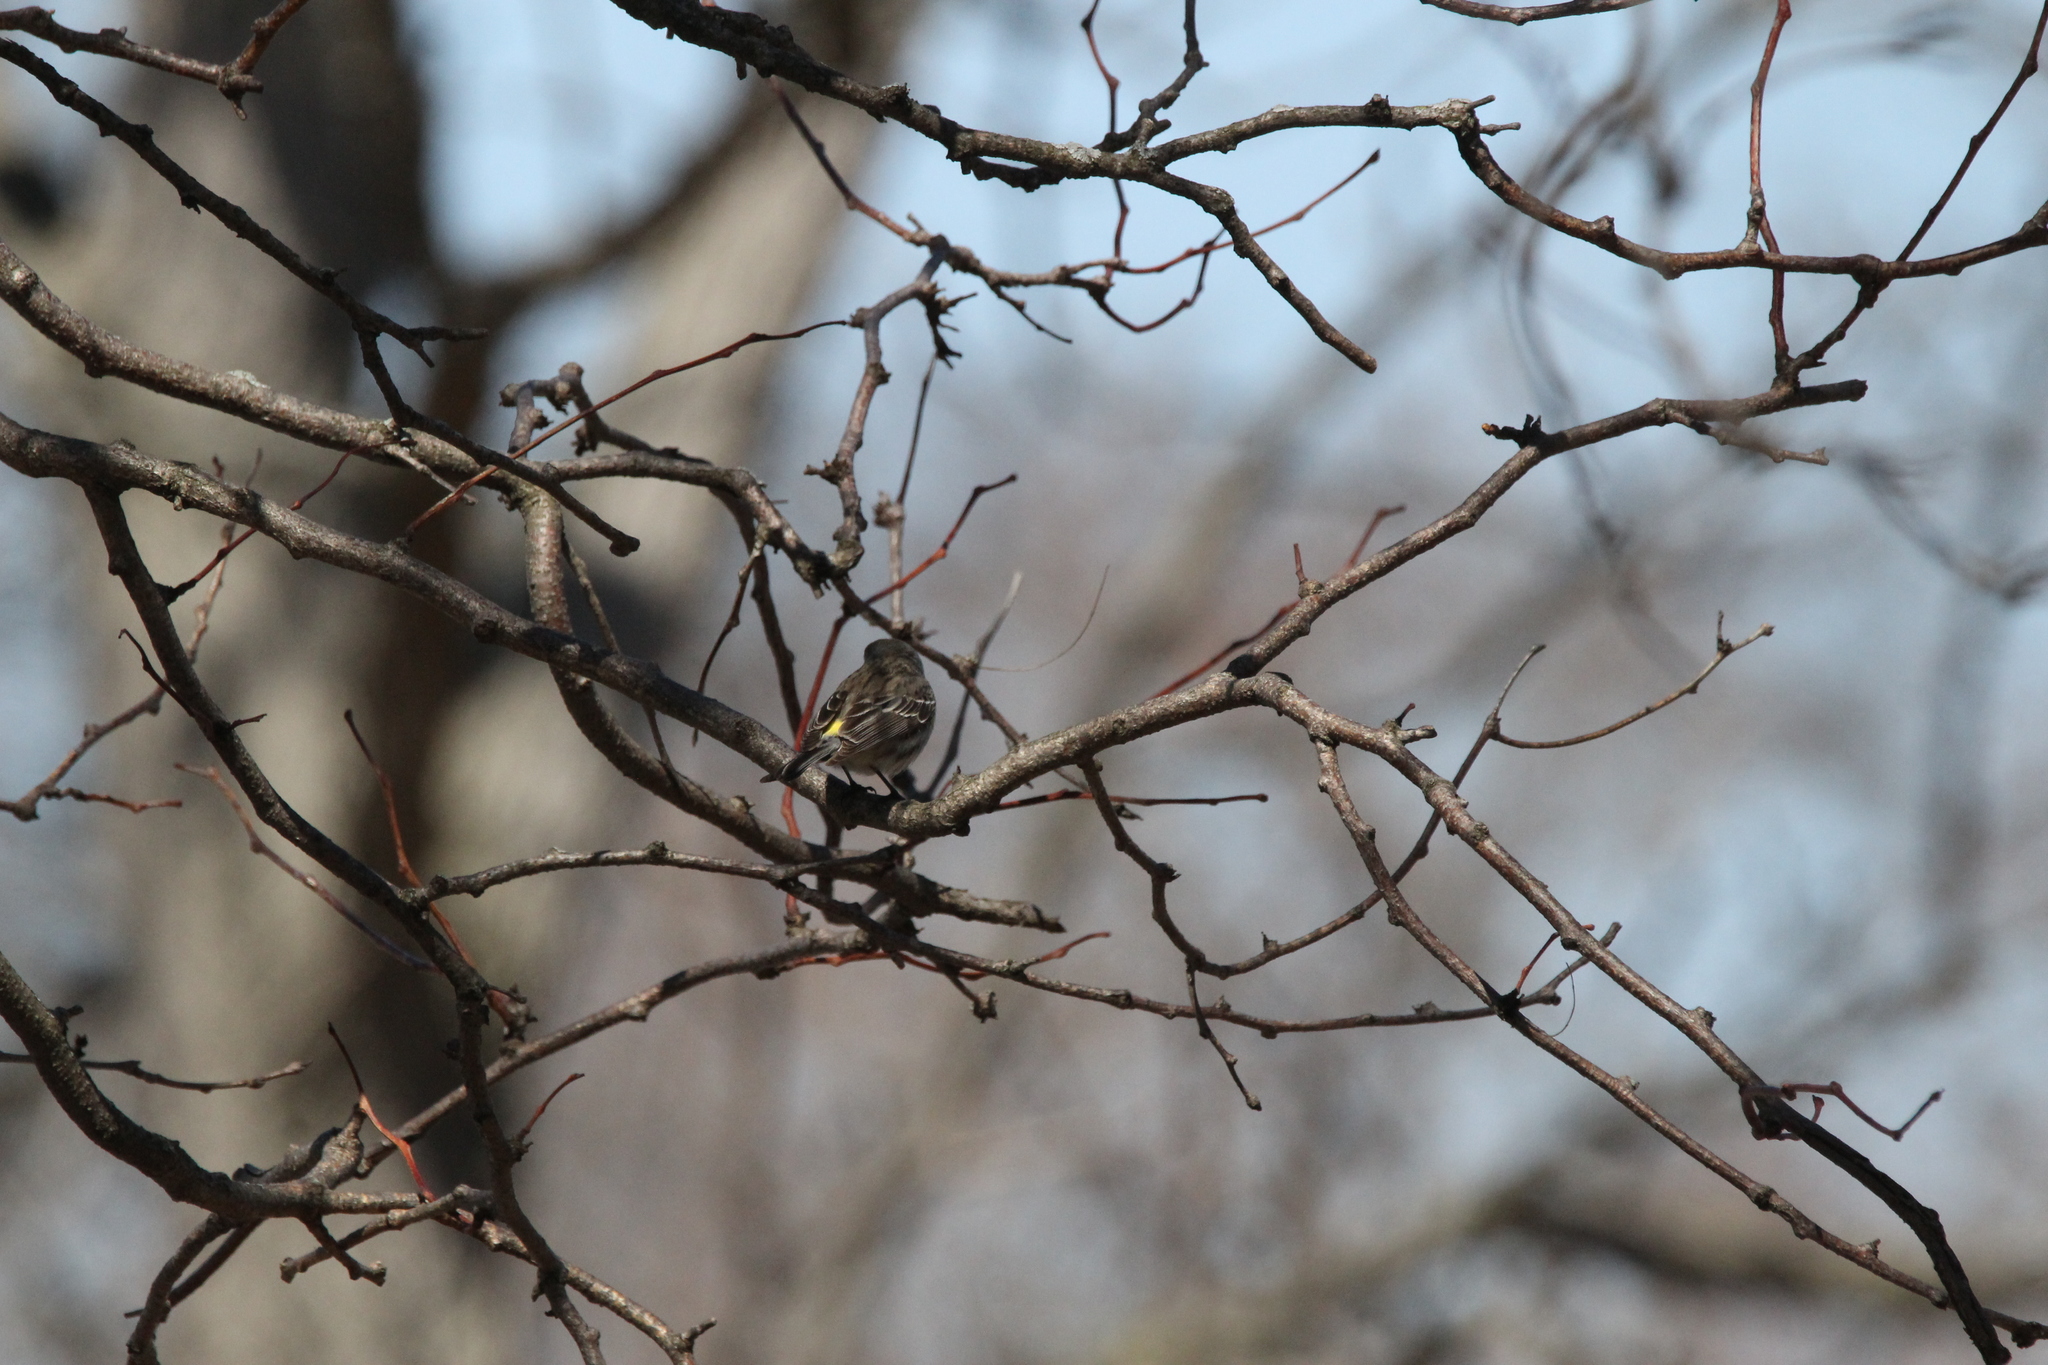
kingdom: Animalia
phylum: Chordata
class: Aves
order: Passeriformes
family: Parulidae
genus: Setophaga
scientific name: Setophaga coronata
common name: Myrtle warbler
